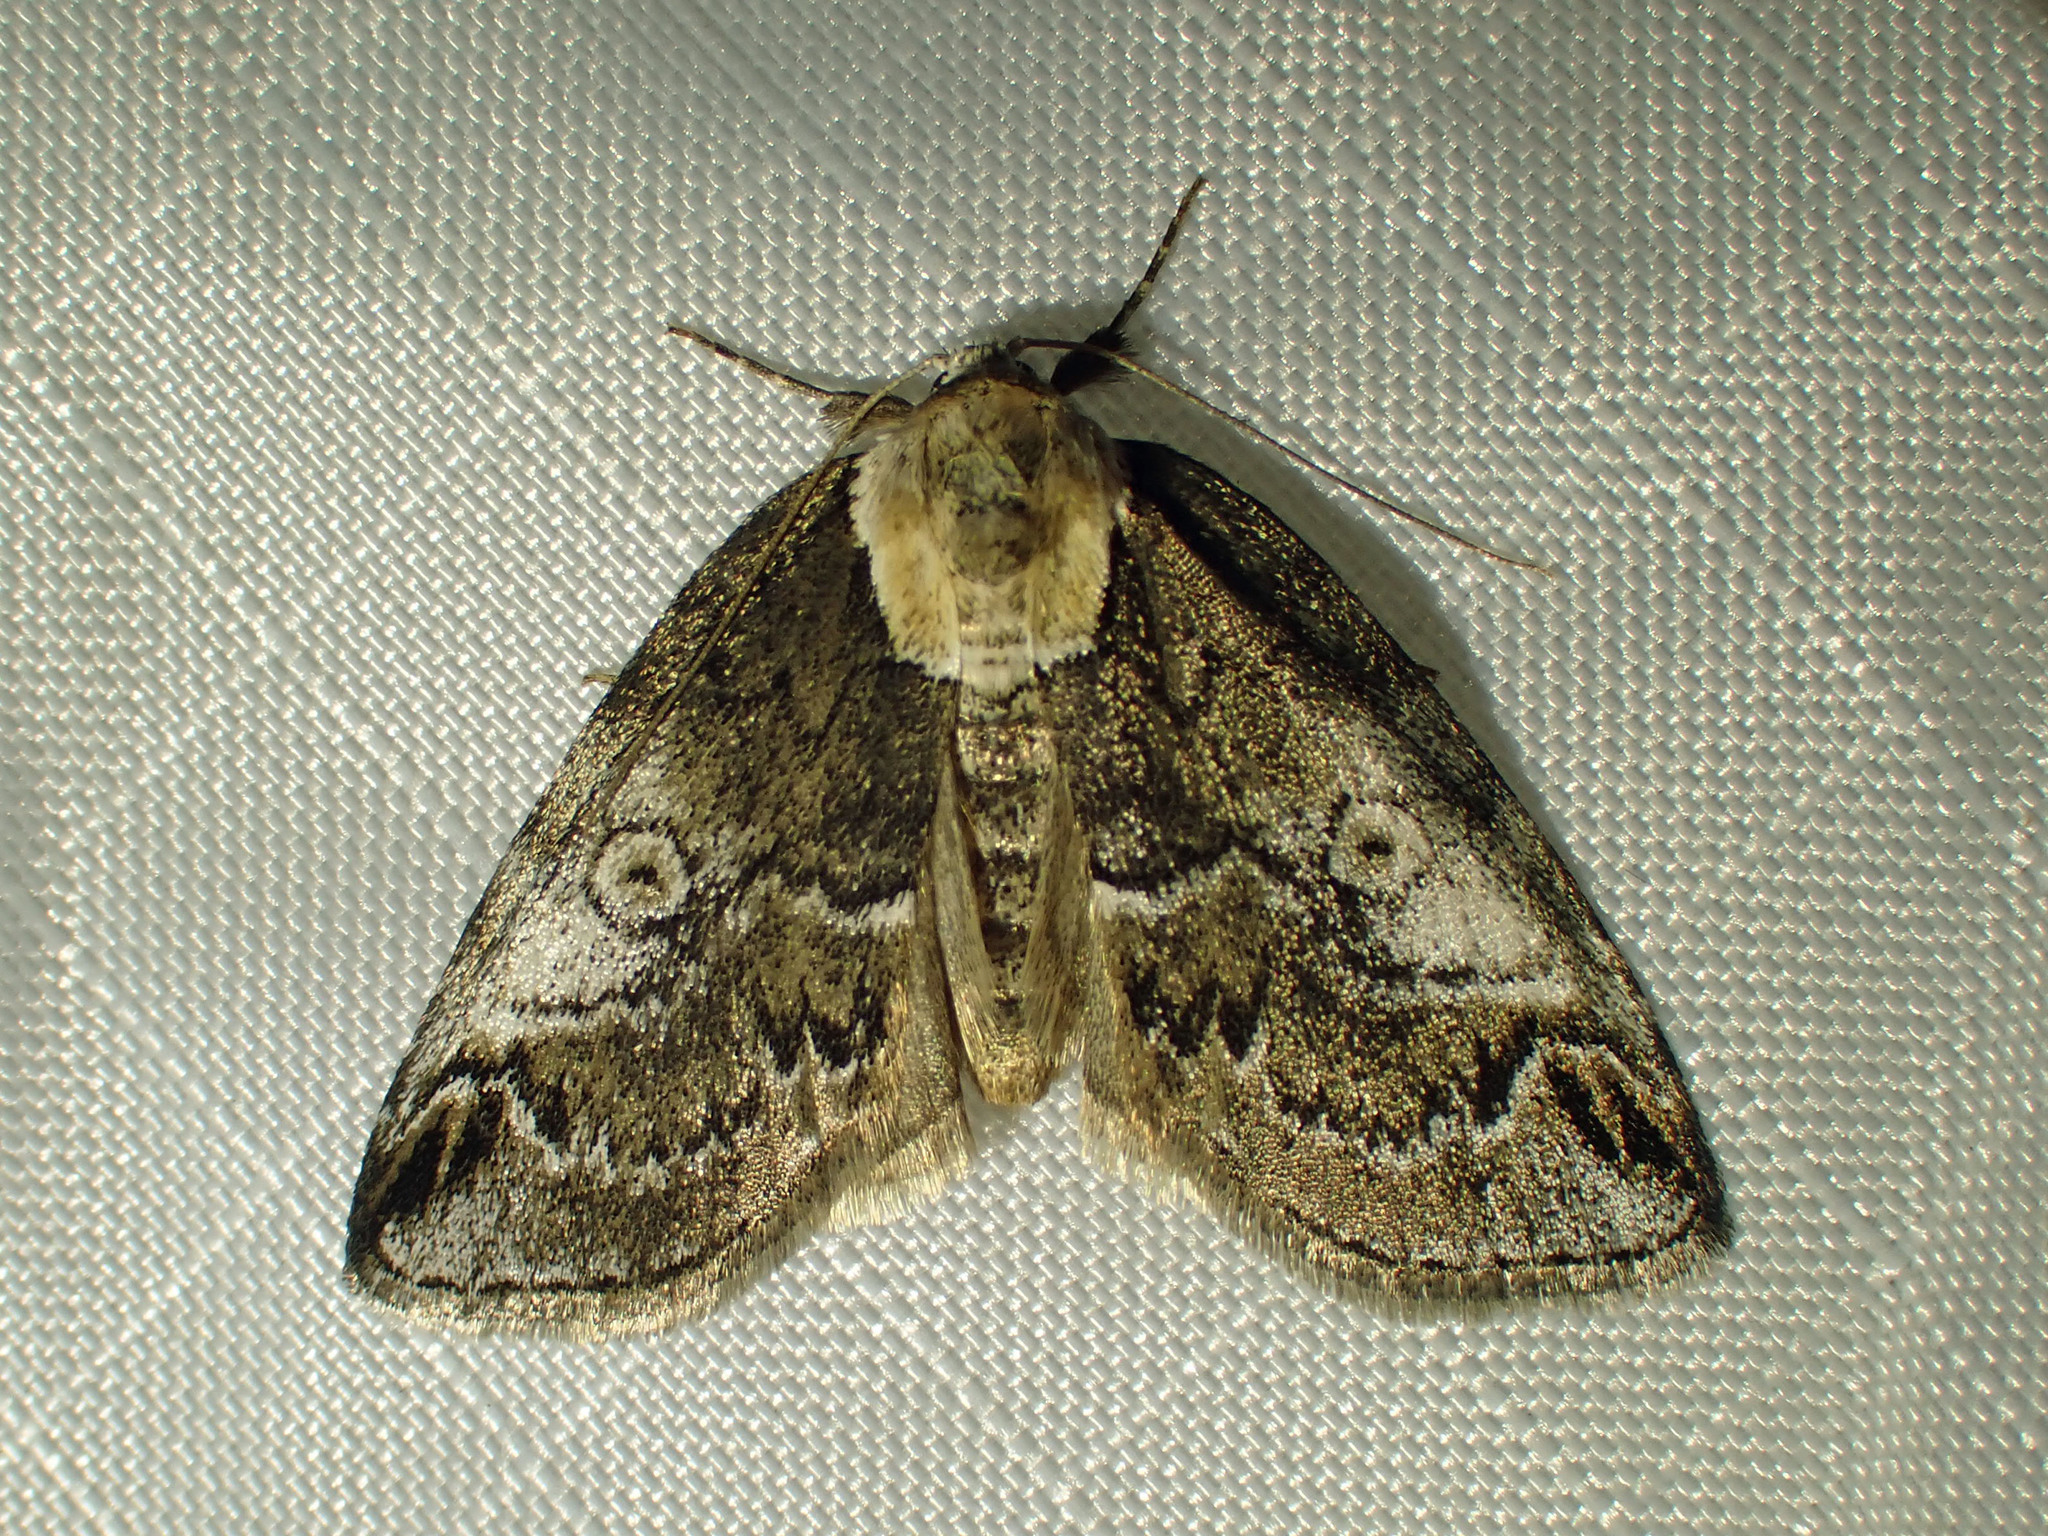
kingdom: Animalia
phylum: Arthropoda
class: Insecta
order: Lepidoptera
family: Nolidae
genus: Baileya
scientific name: Baileya ophthalmica
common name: Eyed baileya moth
